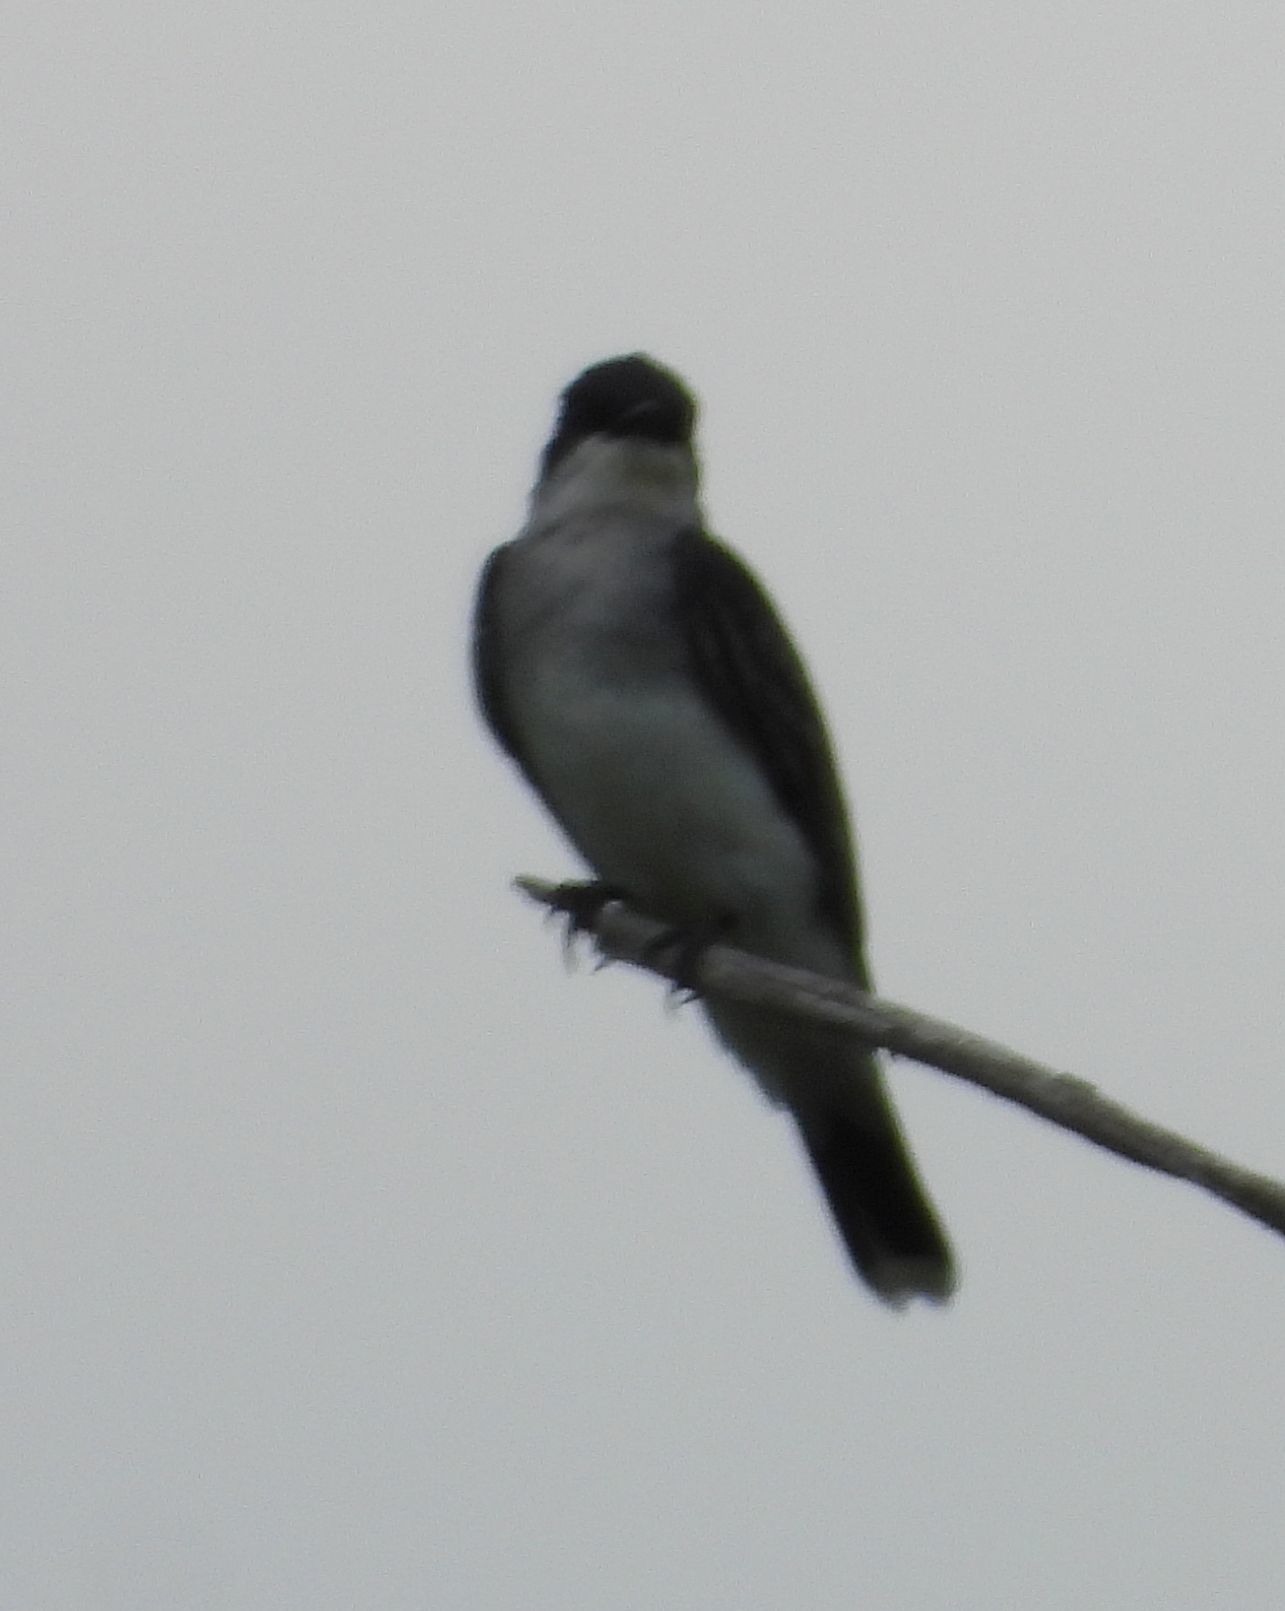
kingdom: Animalia
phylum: Chordata
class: Aves
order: Passeriformes
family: Tyrannidae
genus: Tyrannus
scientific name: Tyrannus tyrannus
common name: Eastern kingbird
